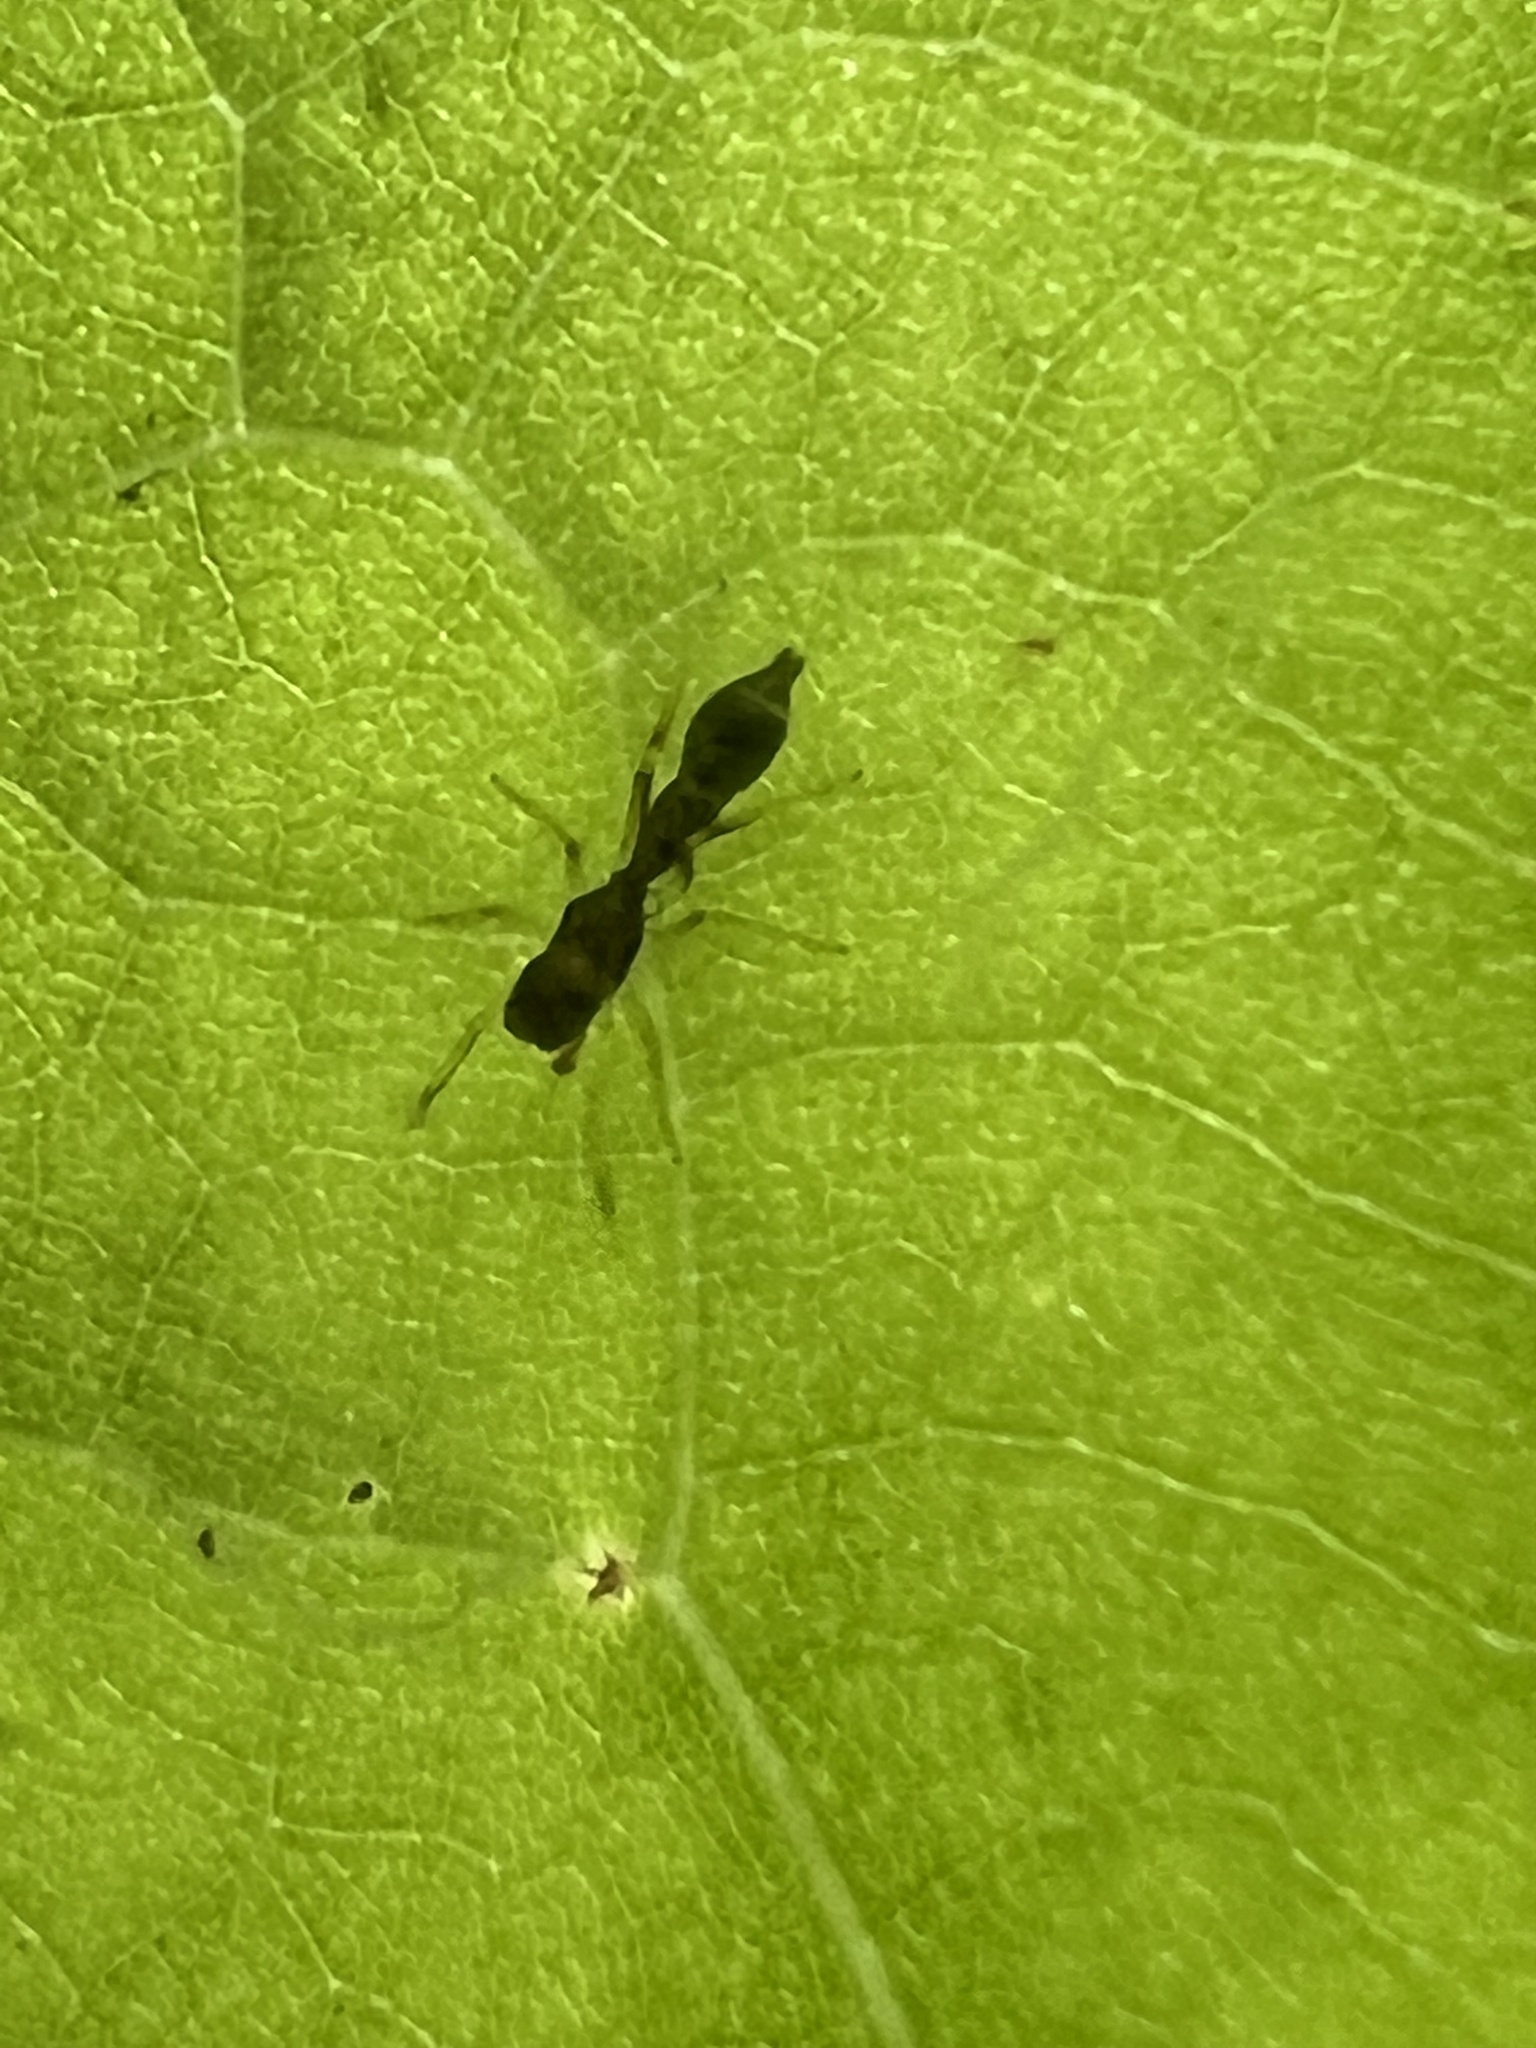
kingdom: Animalia
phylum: Arthropoda
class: Arachnida
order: Araneae
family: Salticidae
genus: Synemosyna
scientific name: Synemosyna formica
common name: Slender ant-mimic jumping spider
